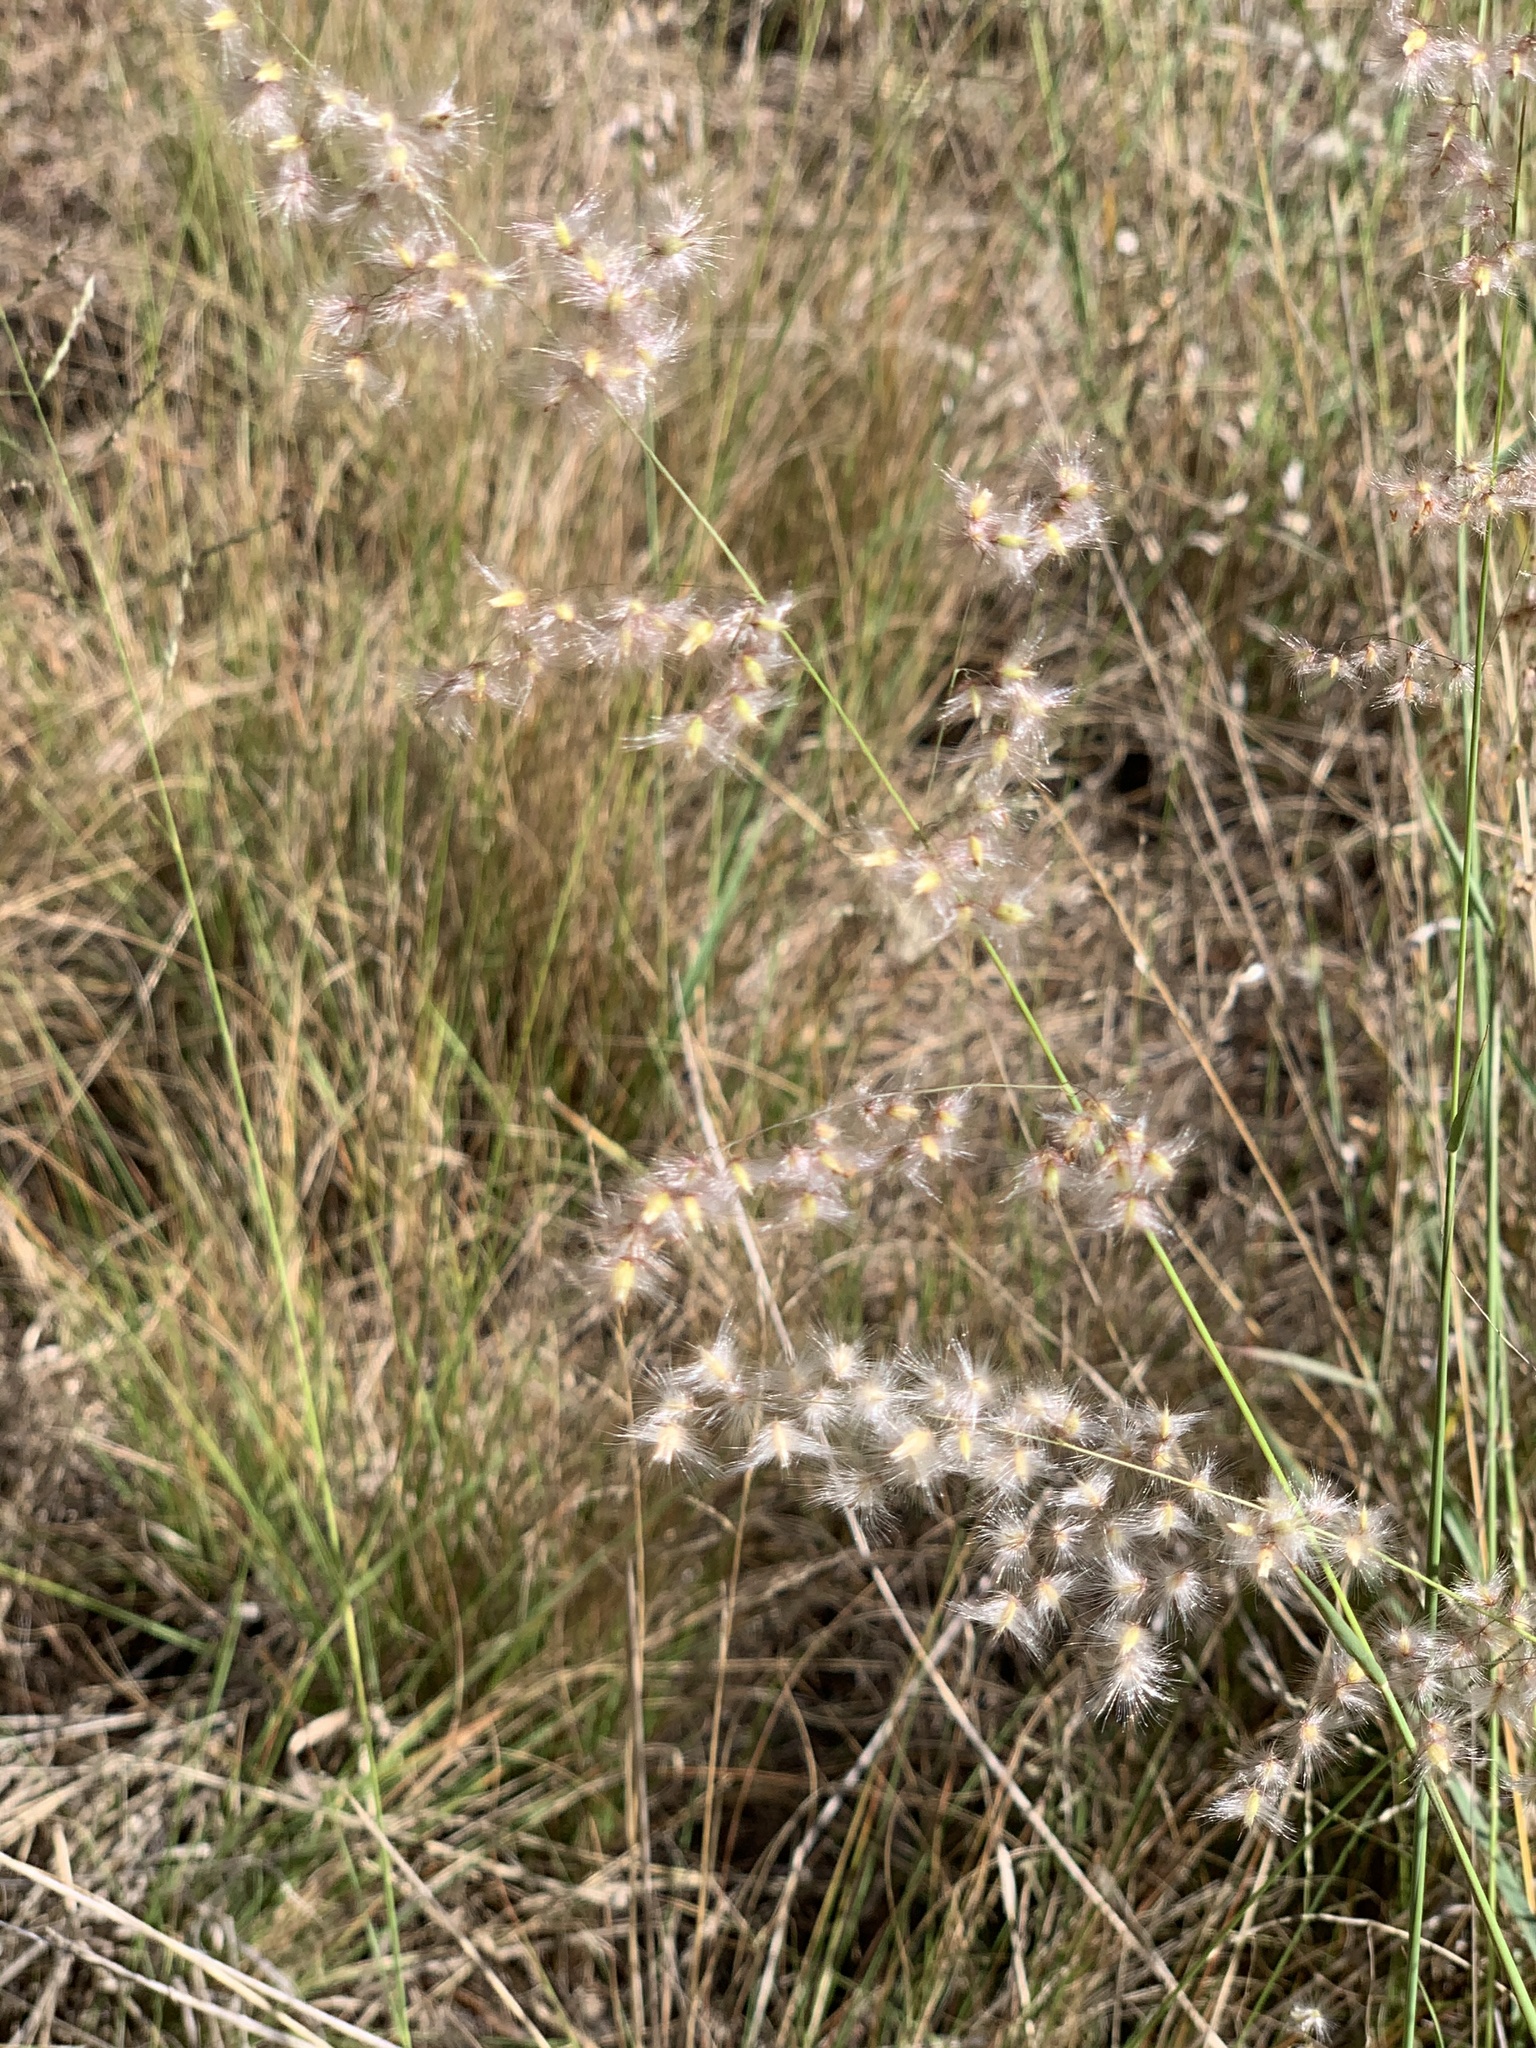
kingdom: Plantae
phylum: Tracheophyta
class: Liliopsida
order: Poales
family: Poaceae
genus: Melinis
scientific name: Melinis repens
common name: Rose natal grass
